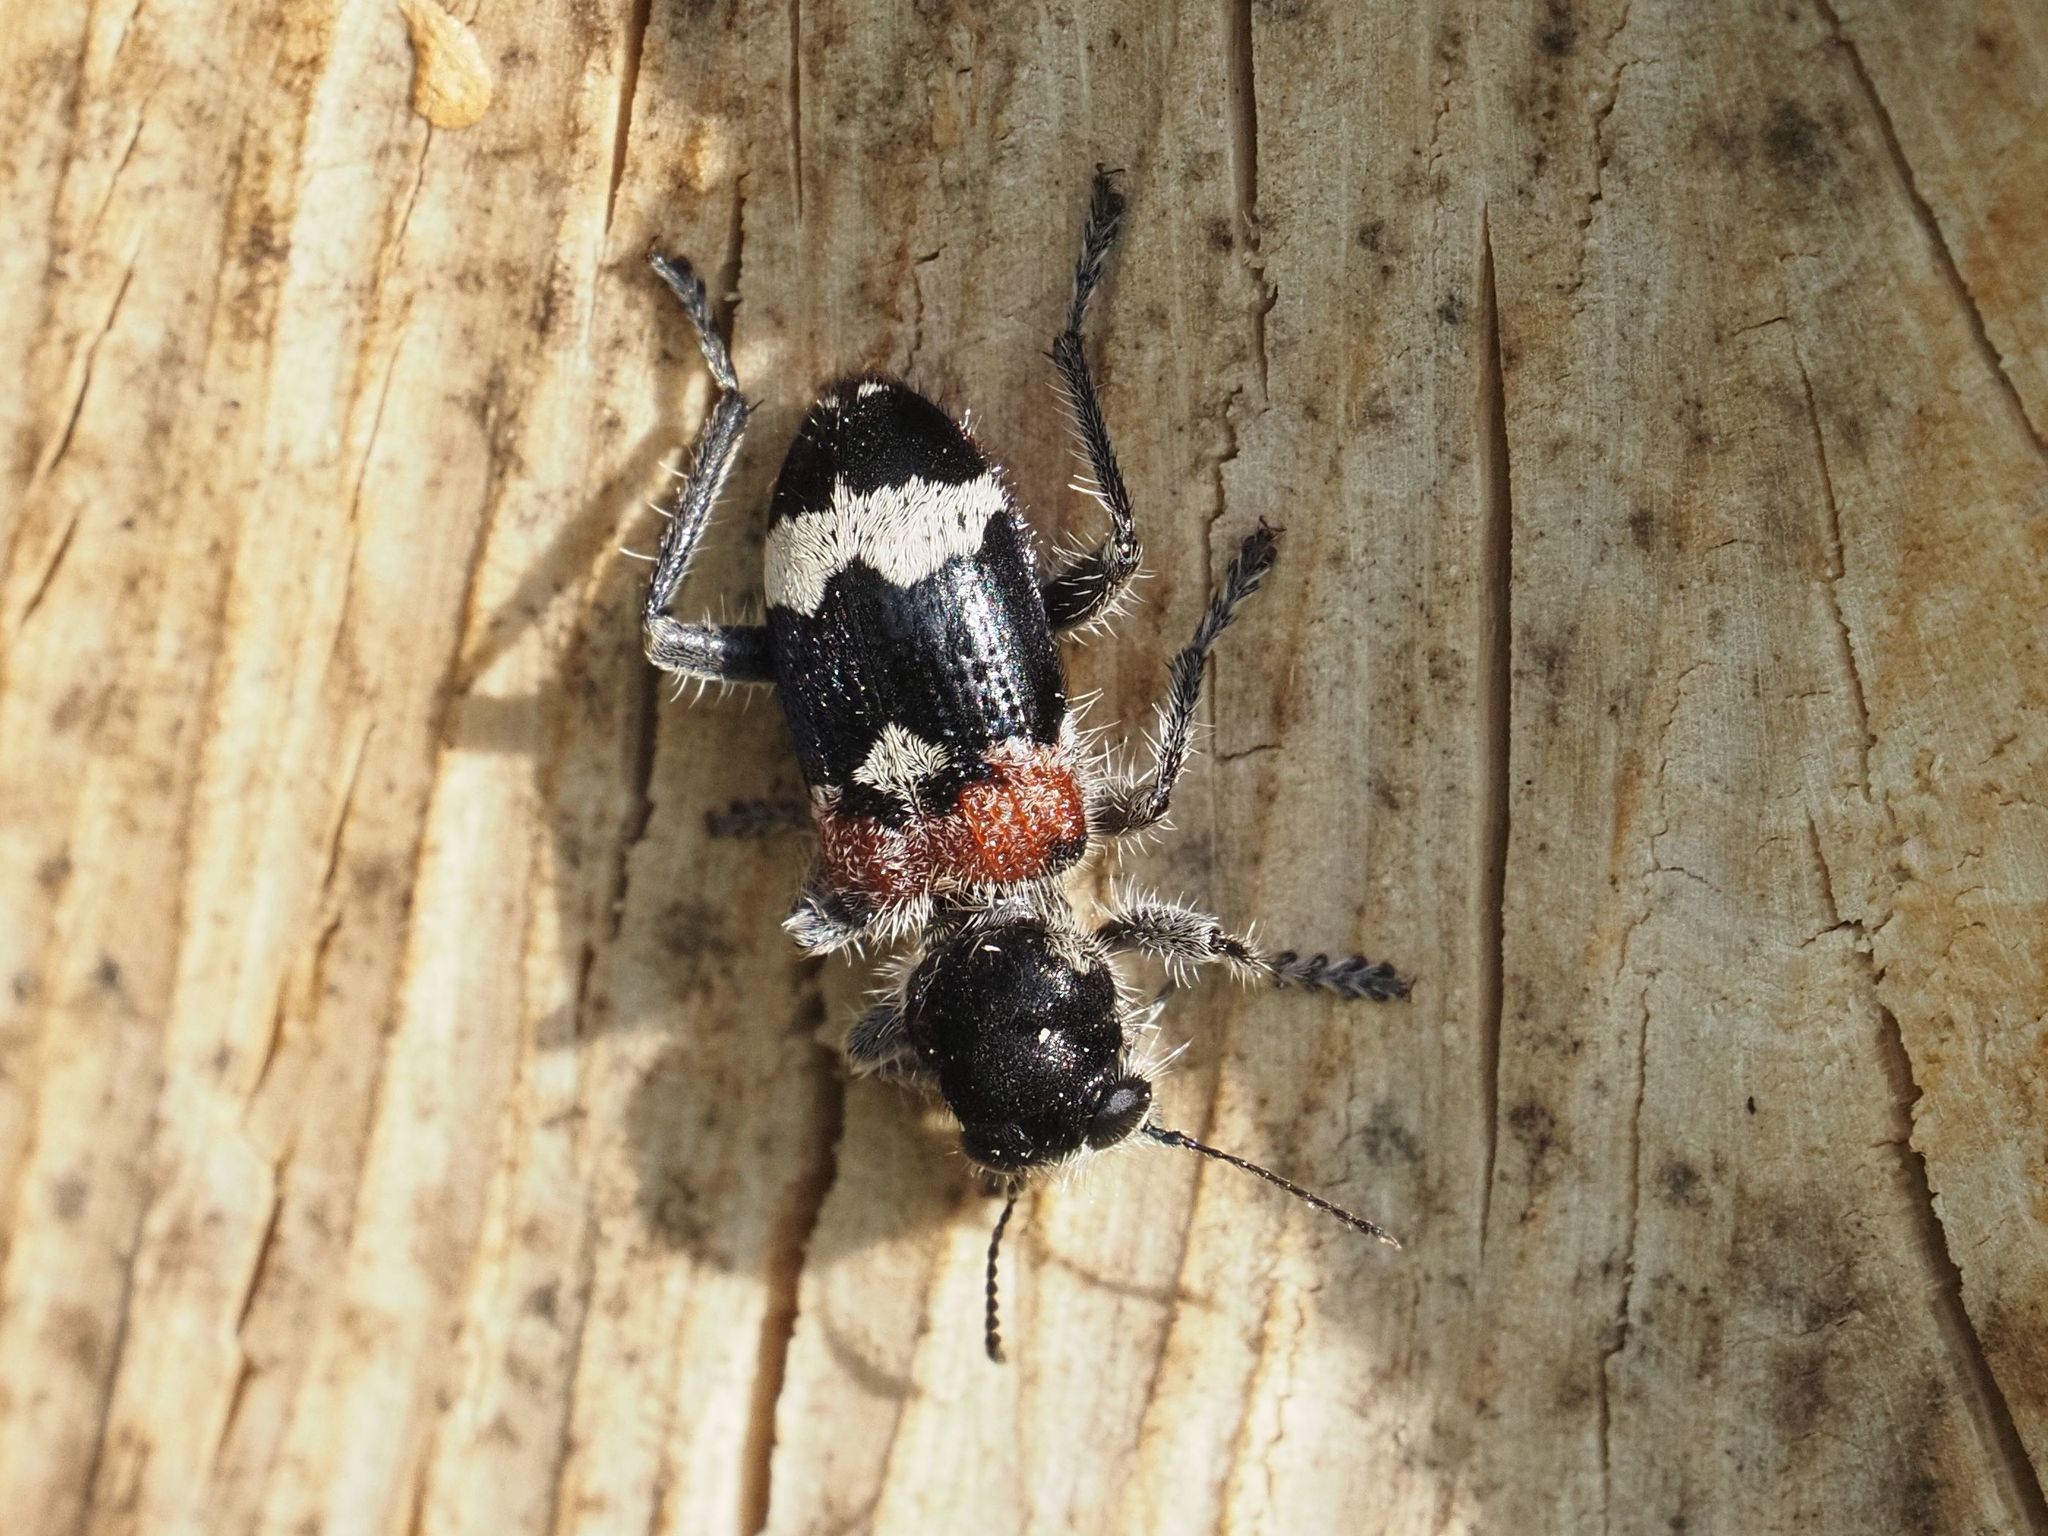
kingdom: Animalia
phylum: Arthropoda
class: Insecta
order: Coleoptera
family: Cleridae
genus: Clerus
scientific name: Clerus mutillarius
